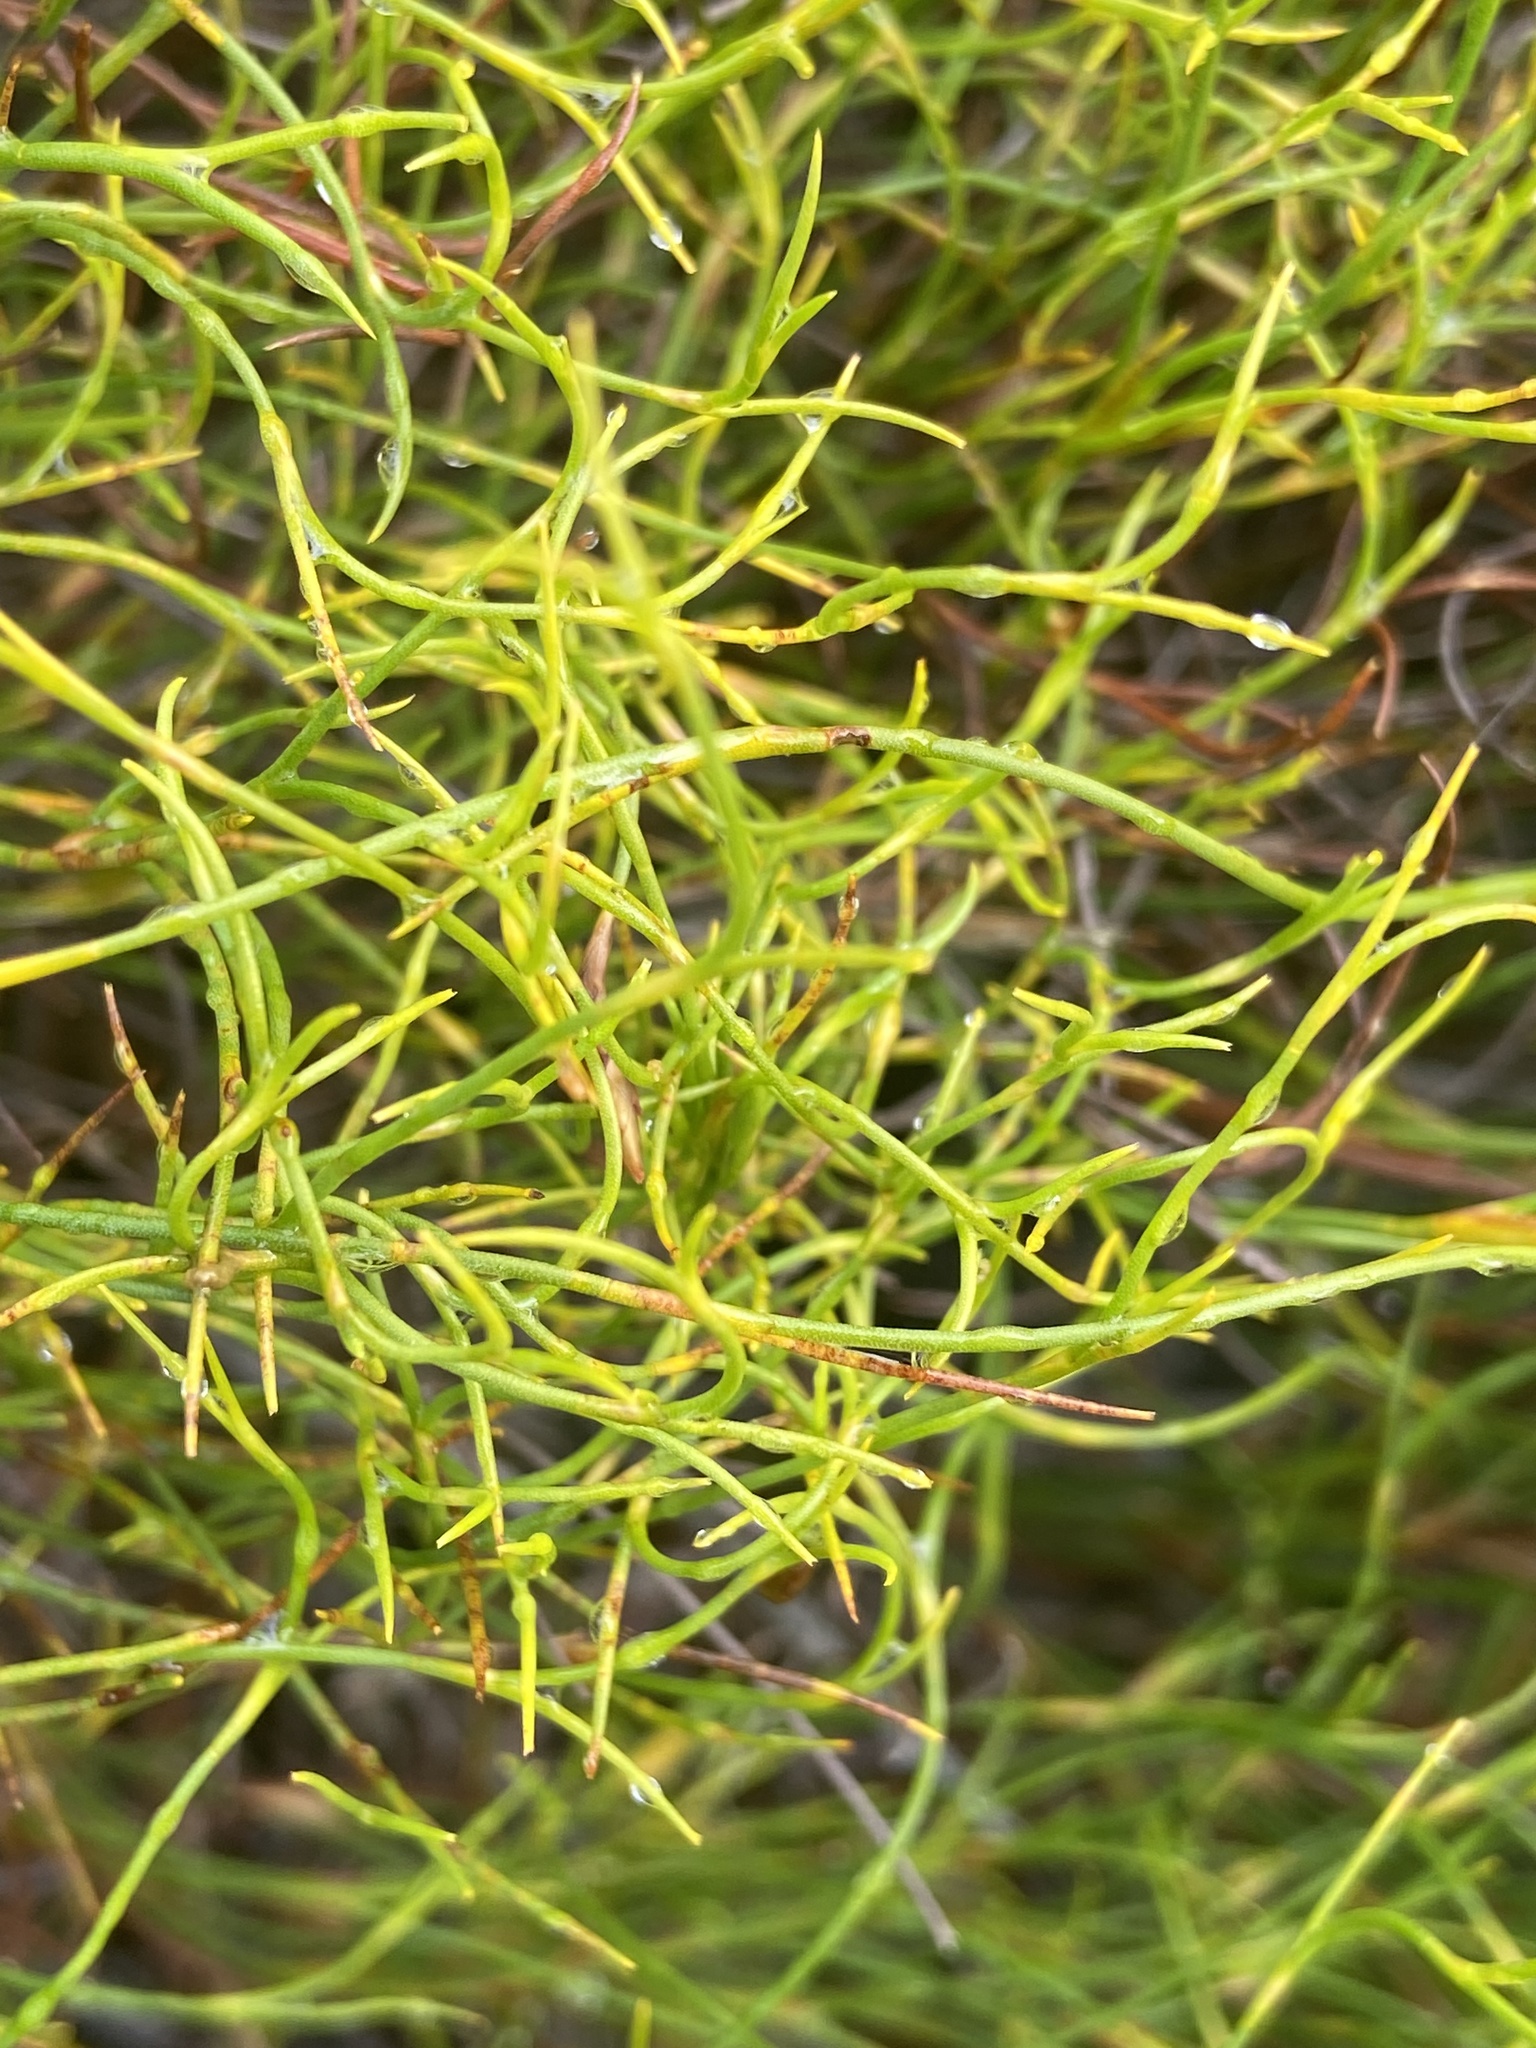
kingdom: Plantae
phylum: Tracheophyta
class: Liliopsida
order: Poales
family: Restionaceae
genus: Restio
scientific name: Restio tenuissimus
